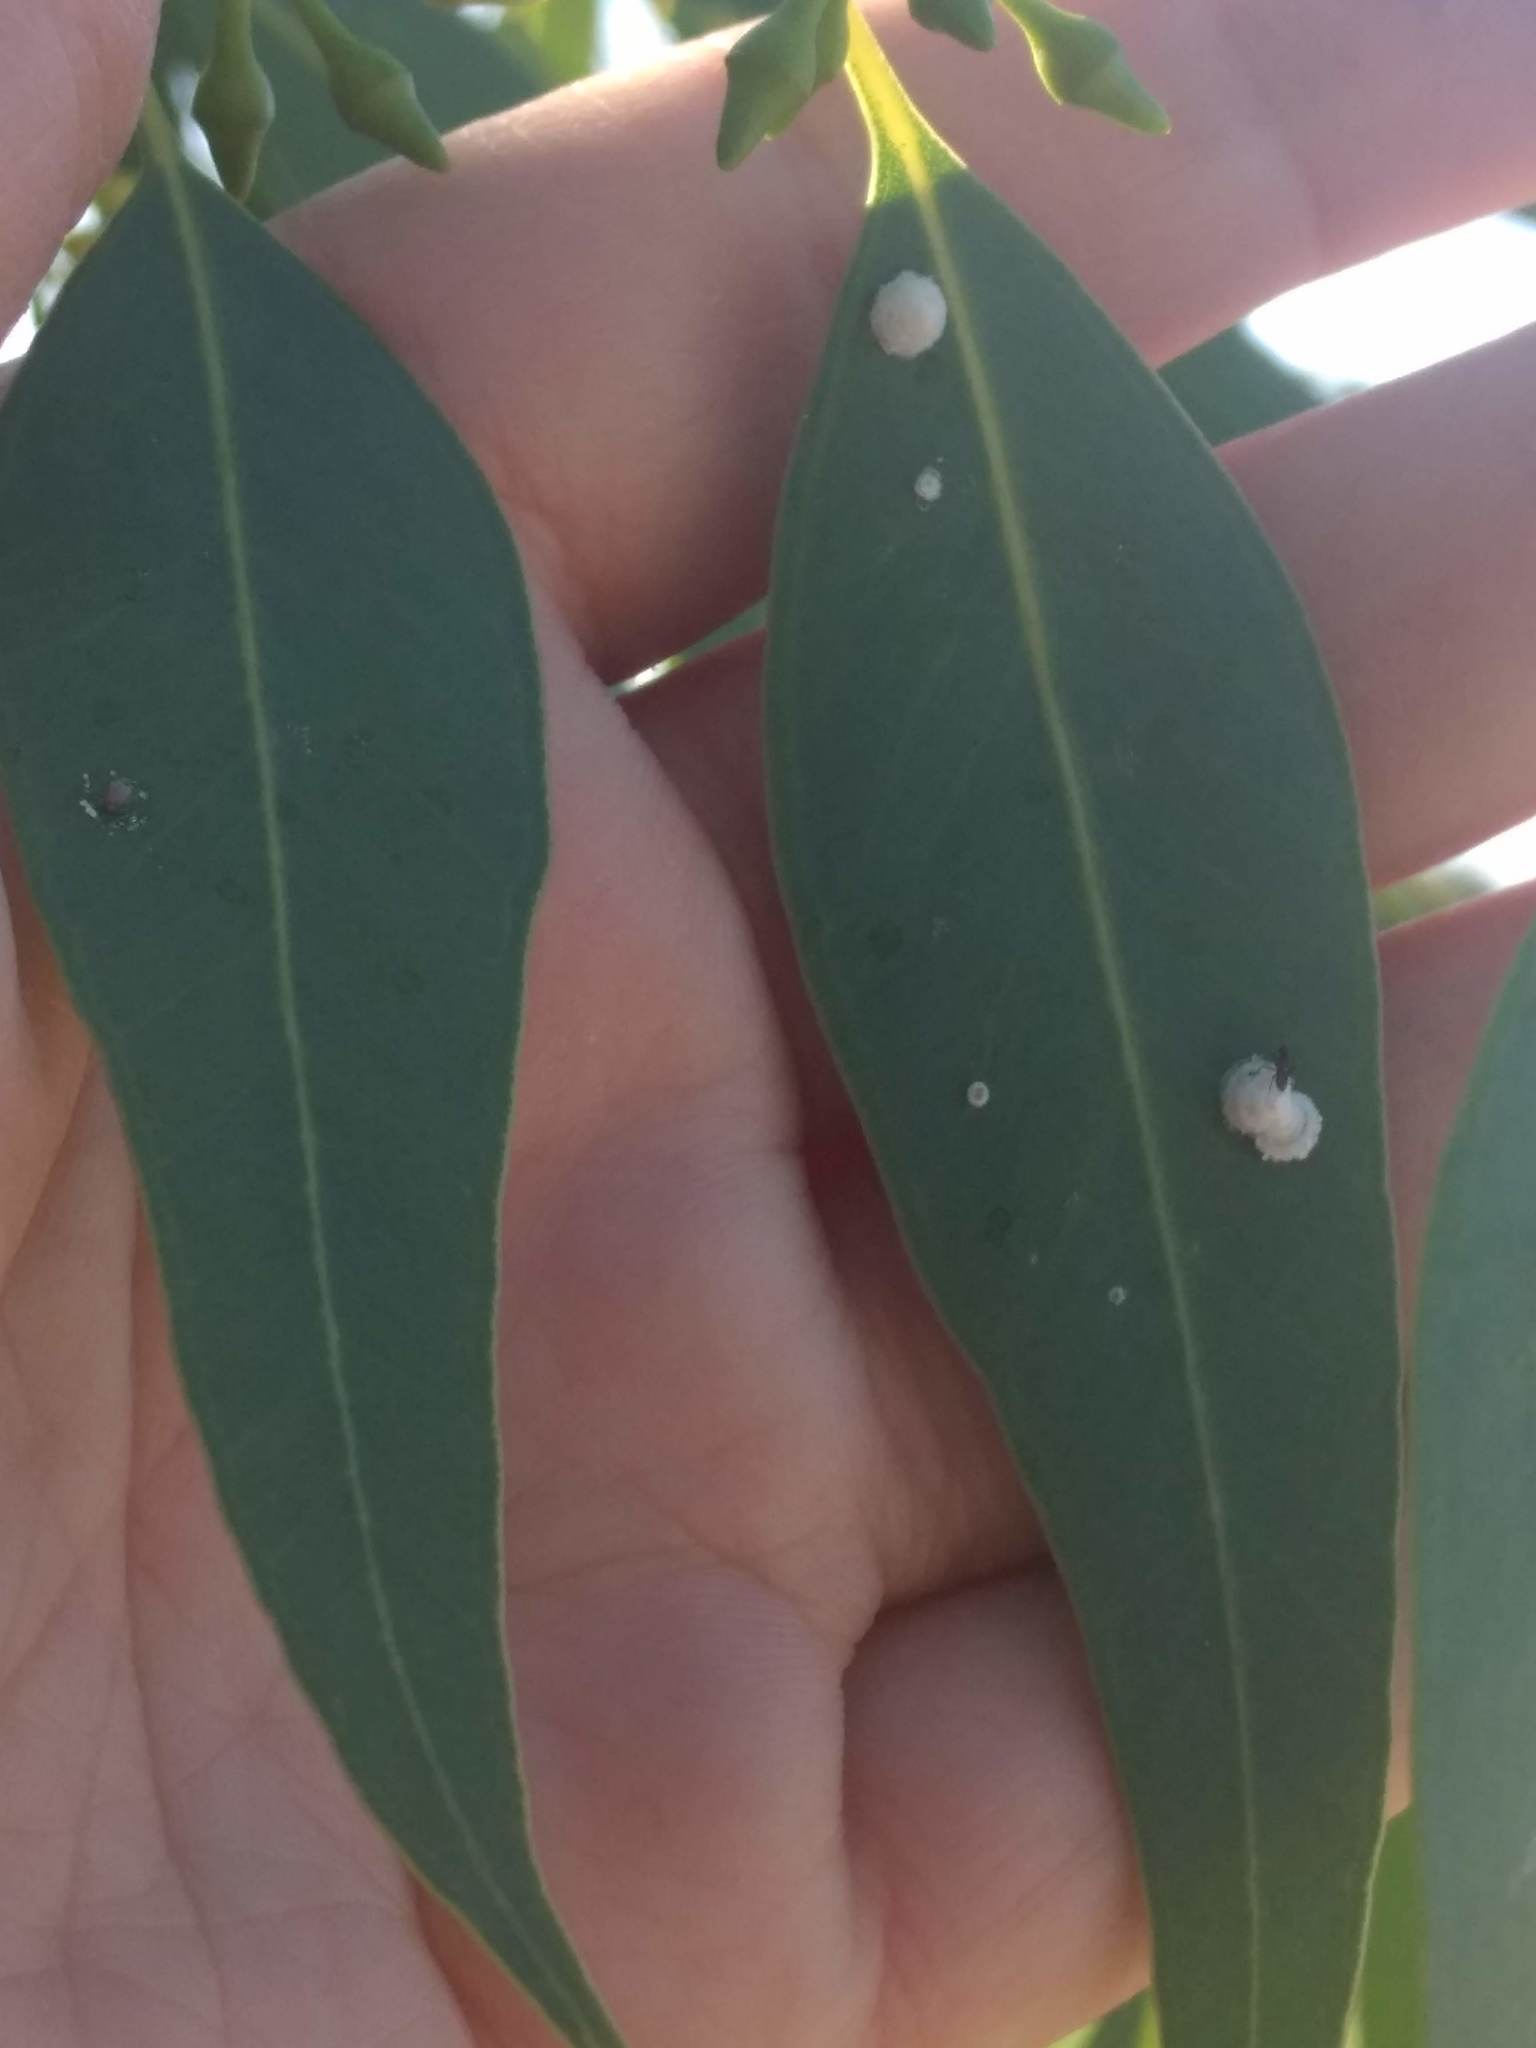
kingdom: Animalia
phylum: Arthropoda
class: Insecta
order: Hemiptera
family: Aphalaridae
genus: Glycaspis
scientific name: Glycaspis brimblecombei
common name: Red gum lerp psyllid
